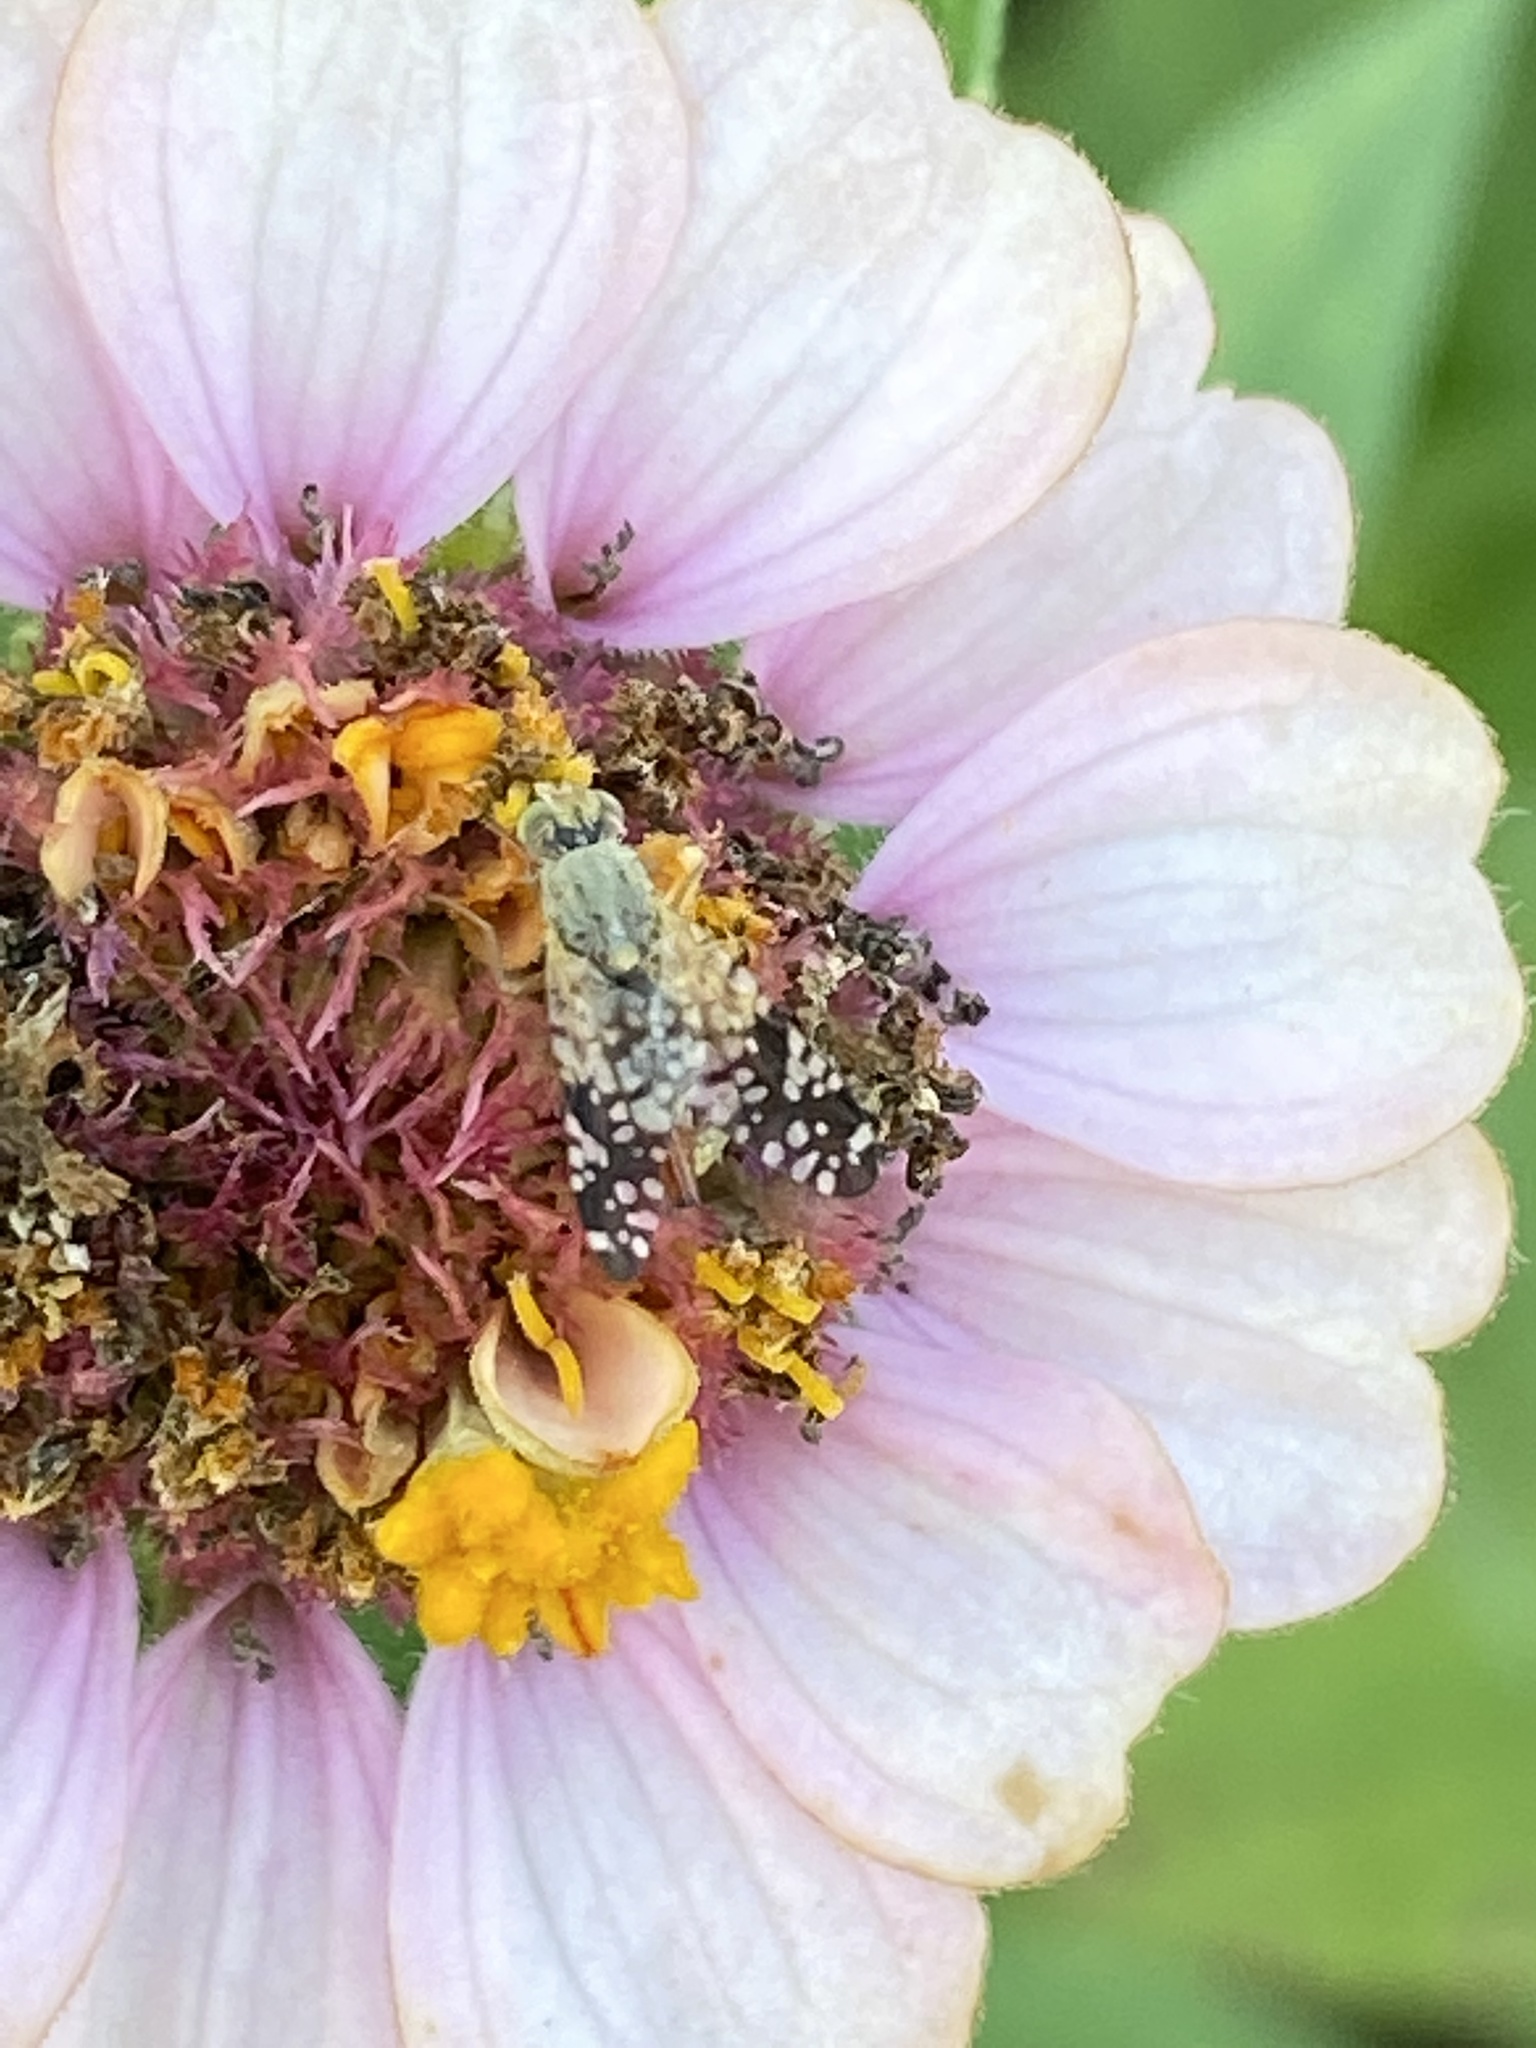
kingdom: Animalia
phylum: Arthropoda
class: Insecta
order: Diptera
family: Tephritidae
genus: Neotephritis
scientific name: Neotephritis finalis
